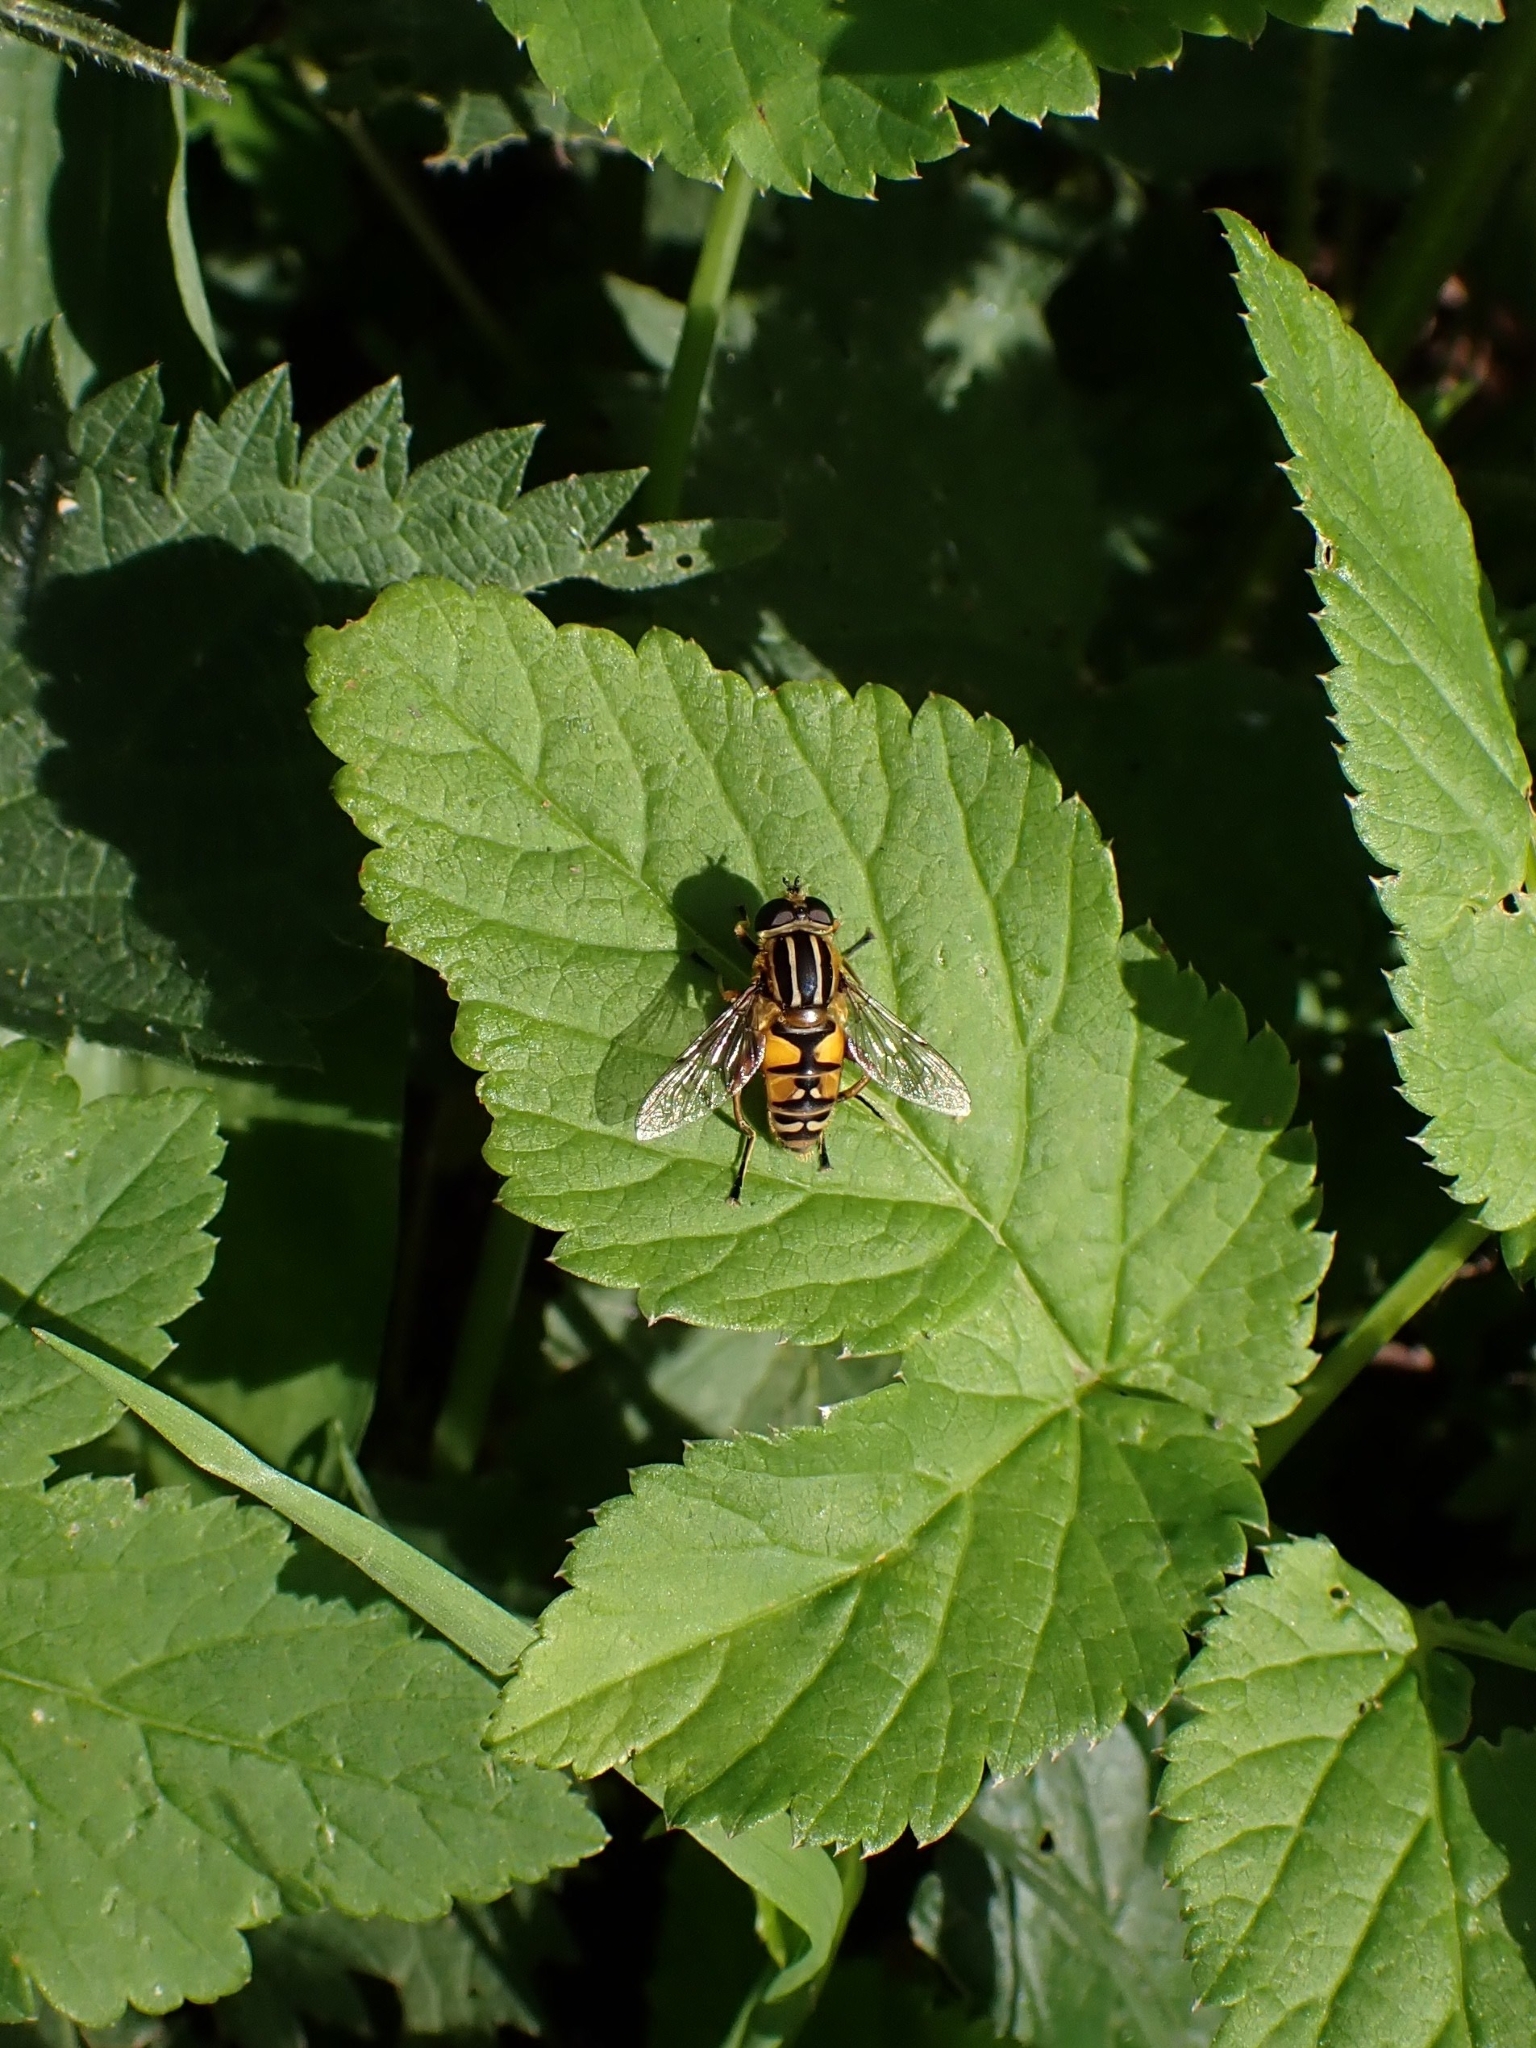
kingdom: Animalia
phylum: Arthropoda
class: Insecta
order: Diptera
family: Syrphidae
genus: Helophilus
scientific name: Helophilus pendulus
